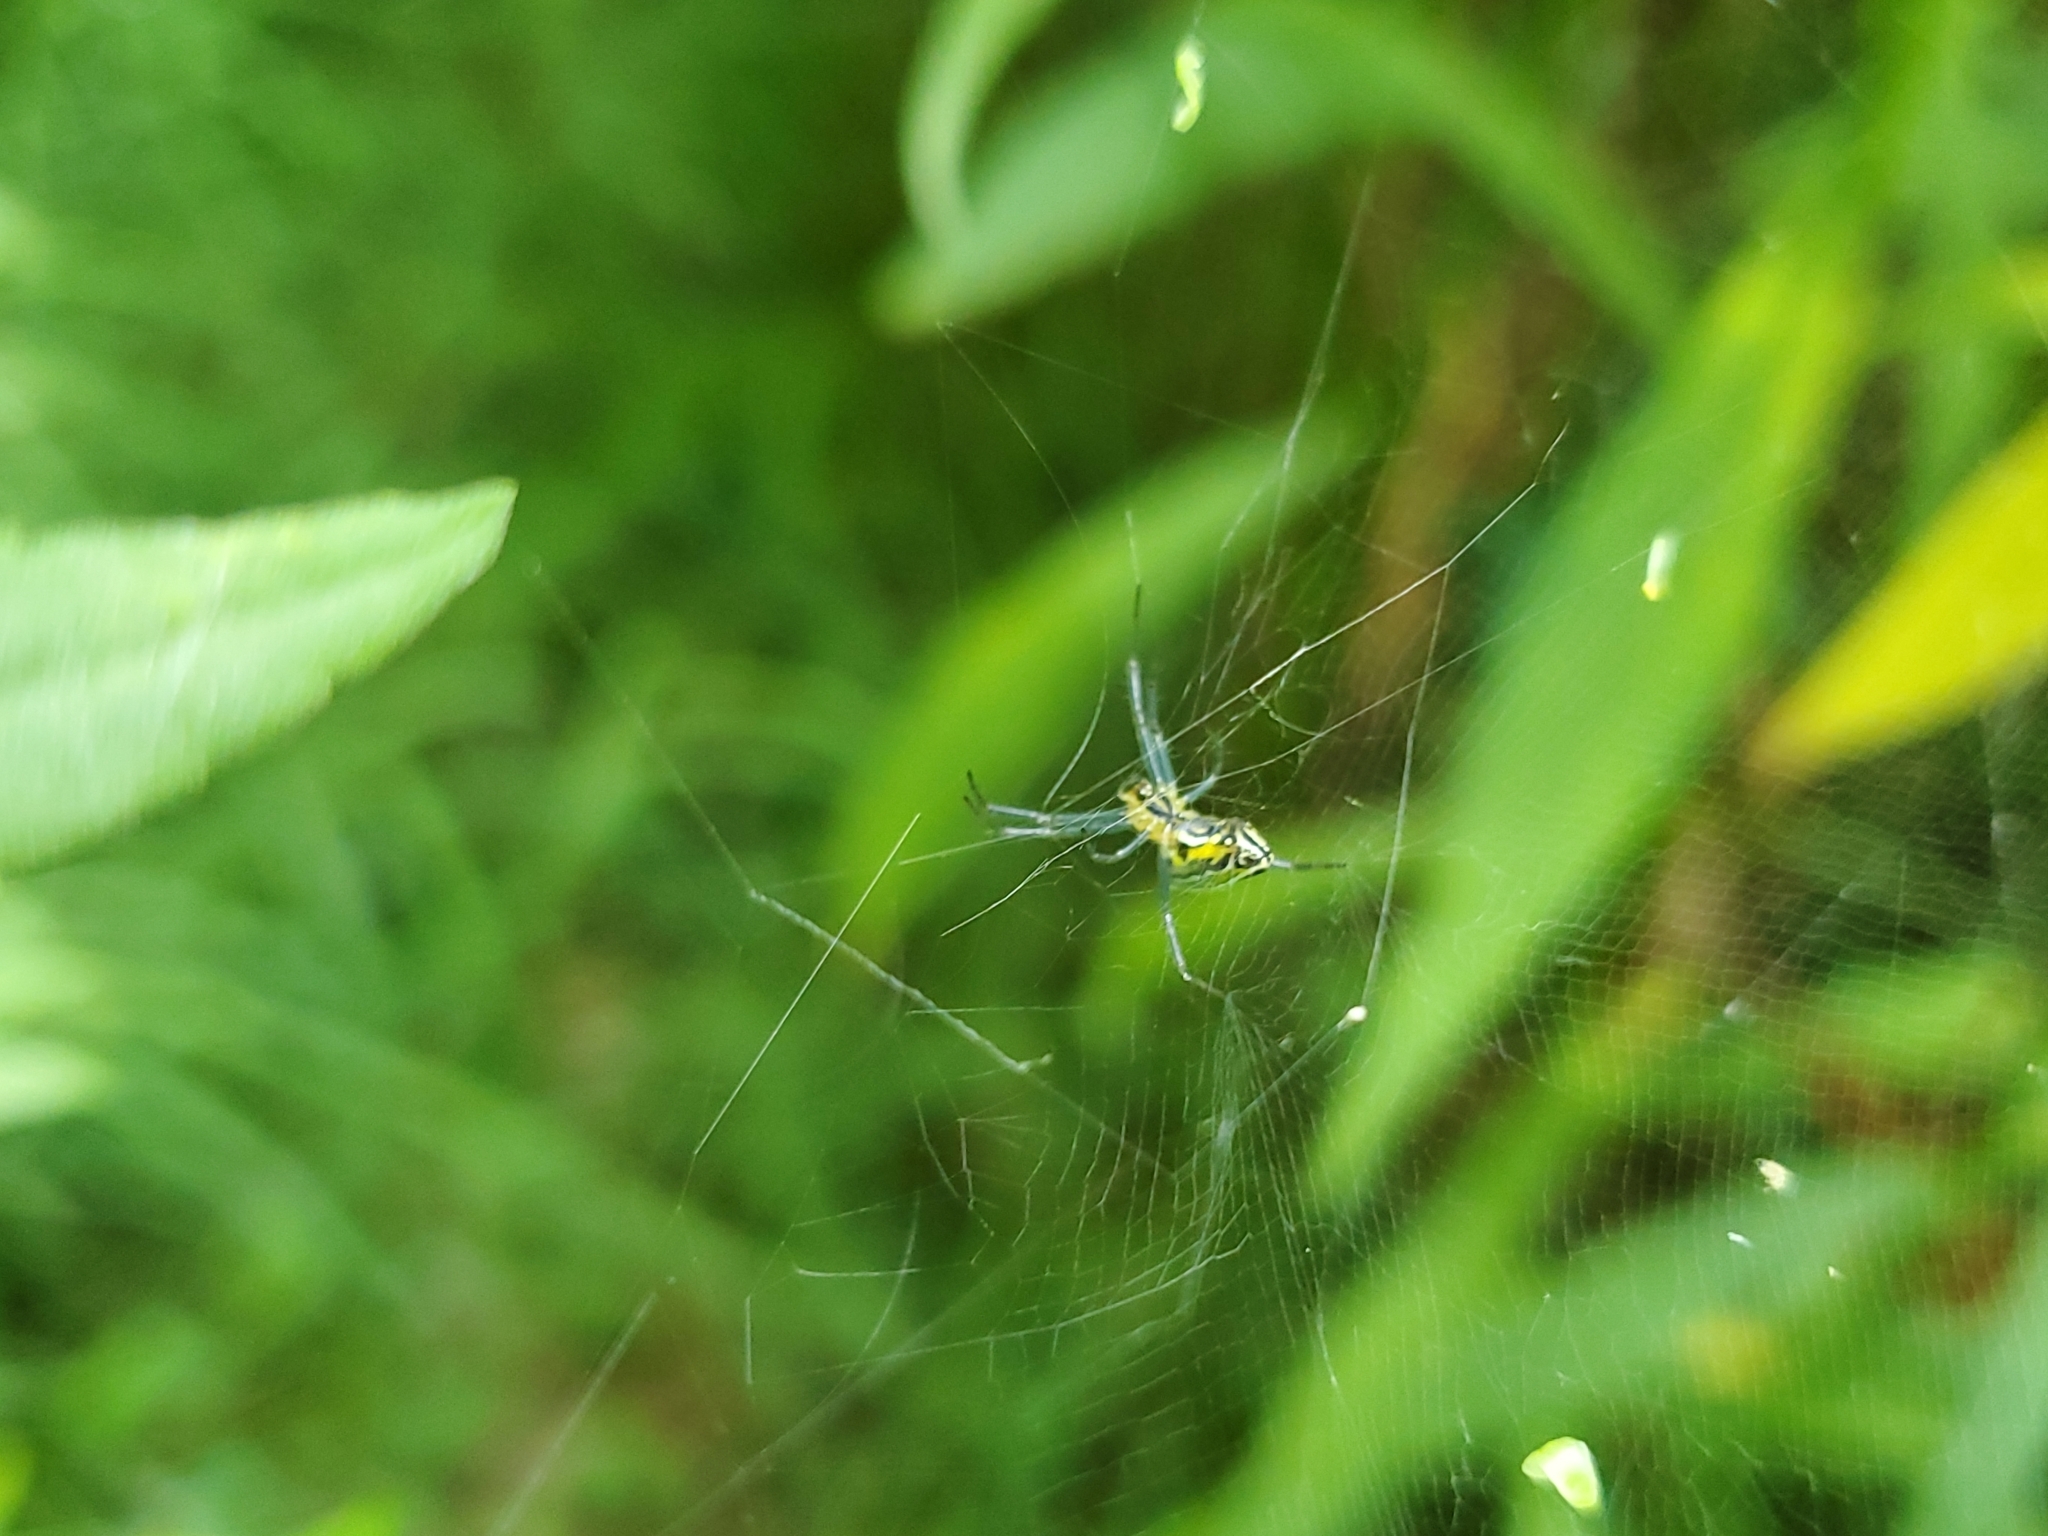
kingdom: Animalia
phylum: Arthropoda
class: Arachnida
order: Araneae
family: Araneidae
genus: Mecynogea
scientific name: Mecynogea lemniscata
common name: Orb weavers
